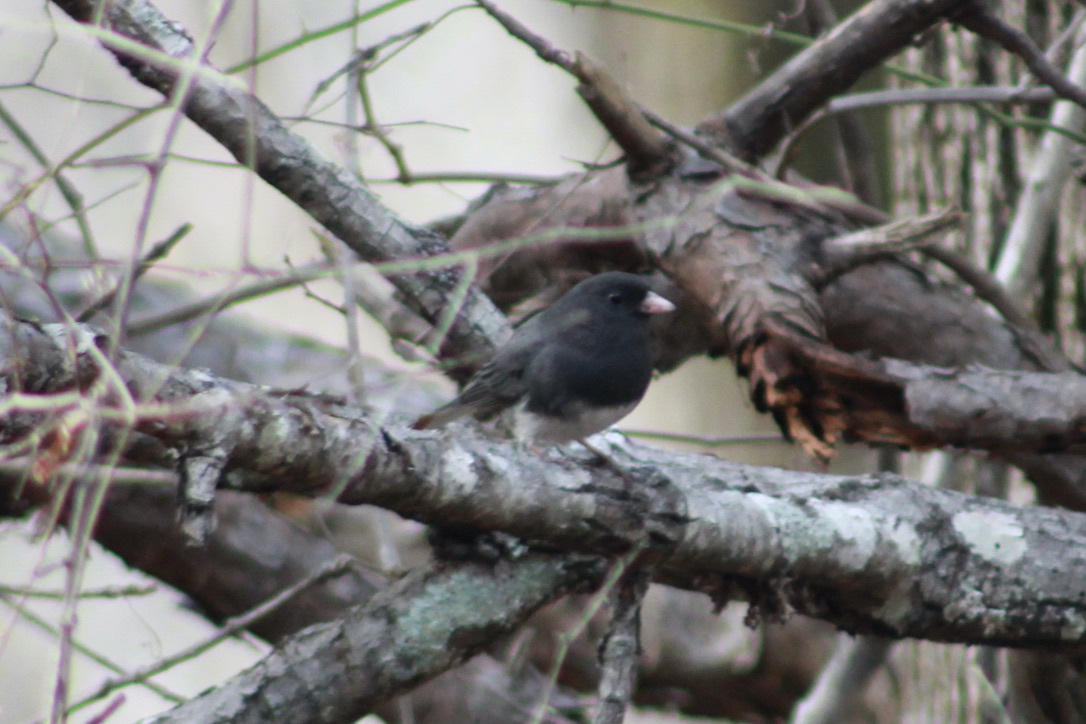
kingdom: Animalia
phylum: Chordata
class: Aves
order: Passeriformes
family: Passerellidae
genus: Junco
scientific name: Junco hyemalis
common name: Dark-eyed junco
